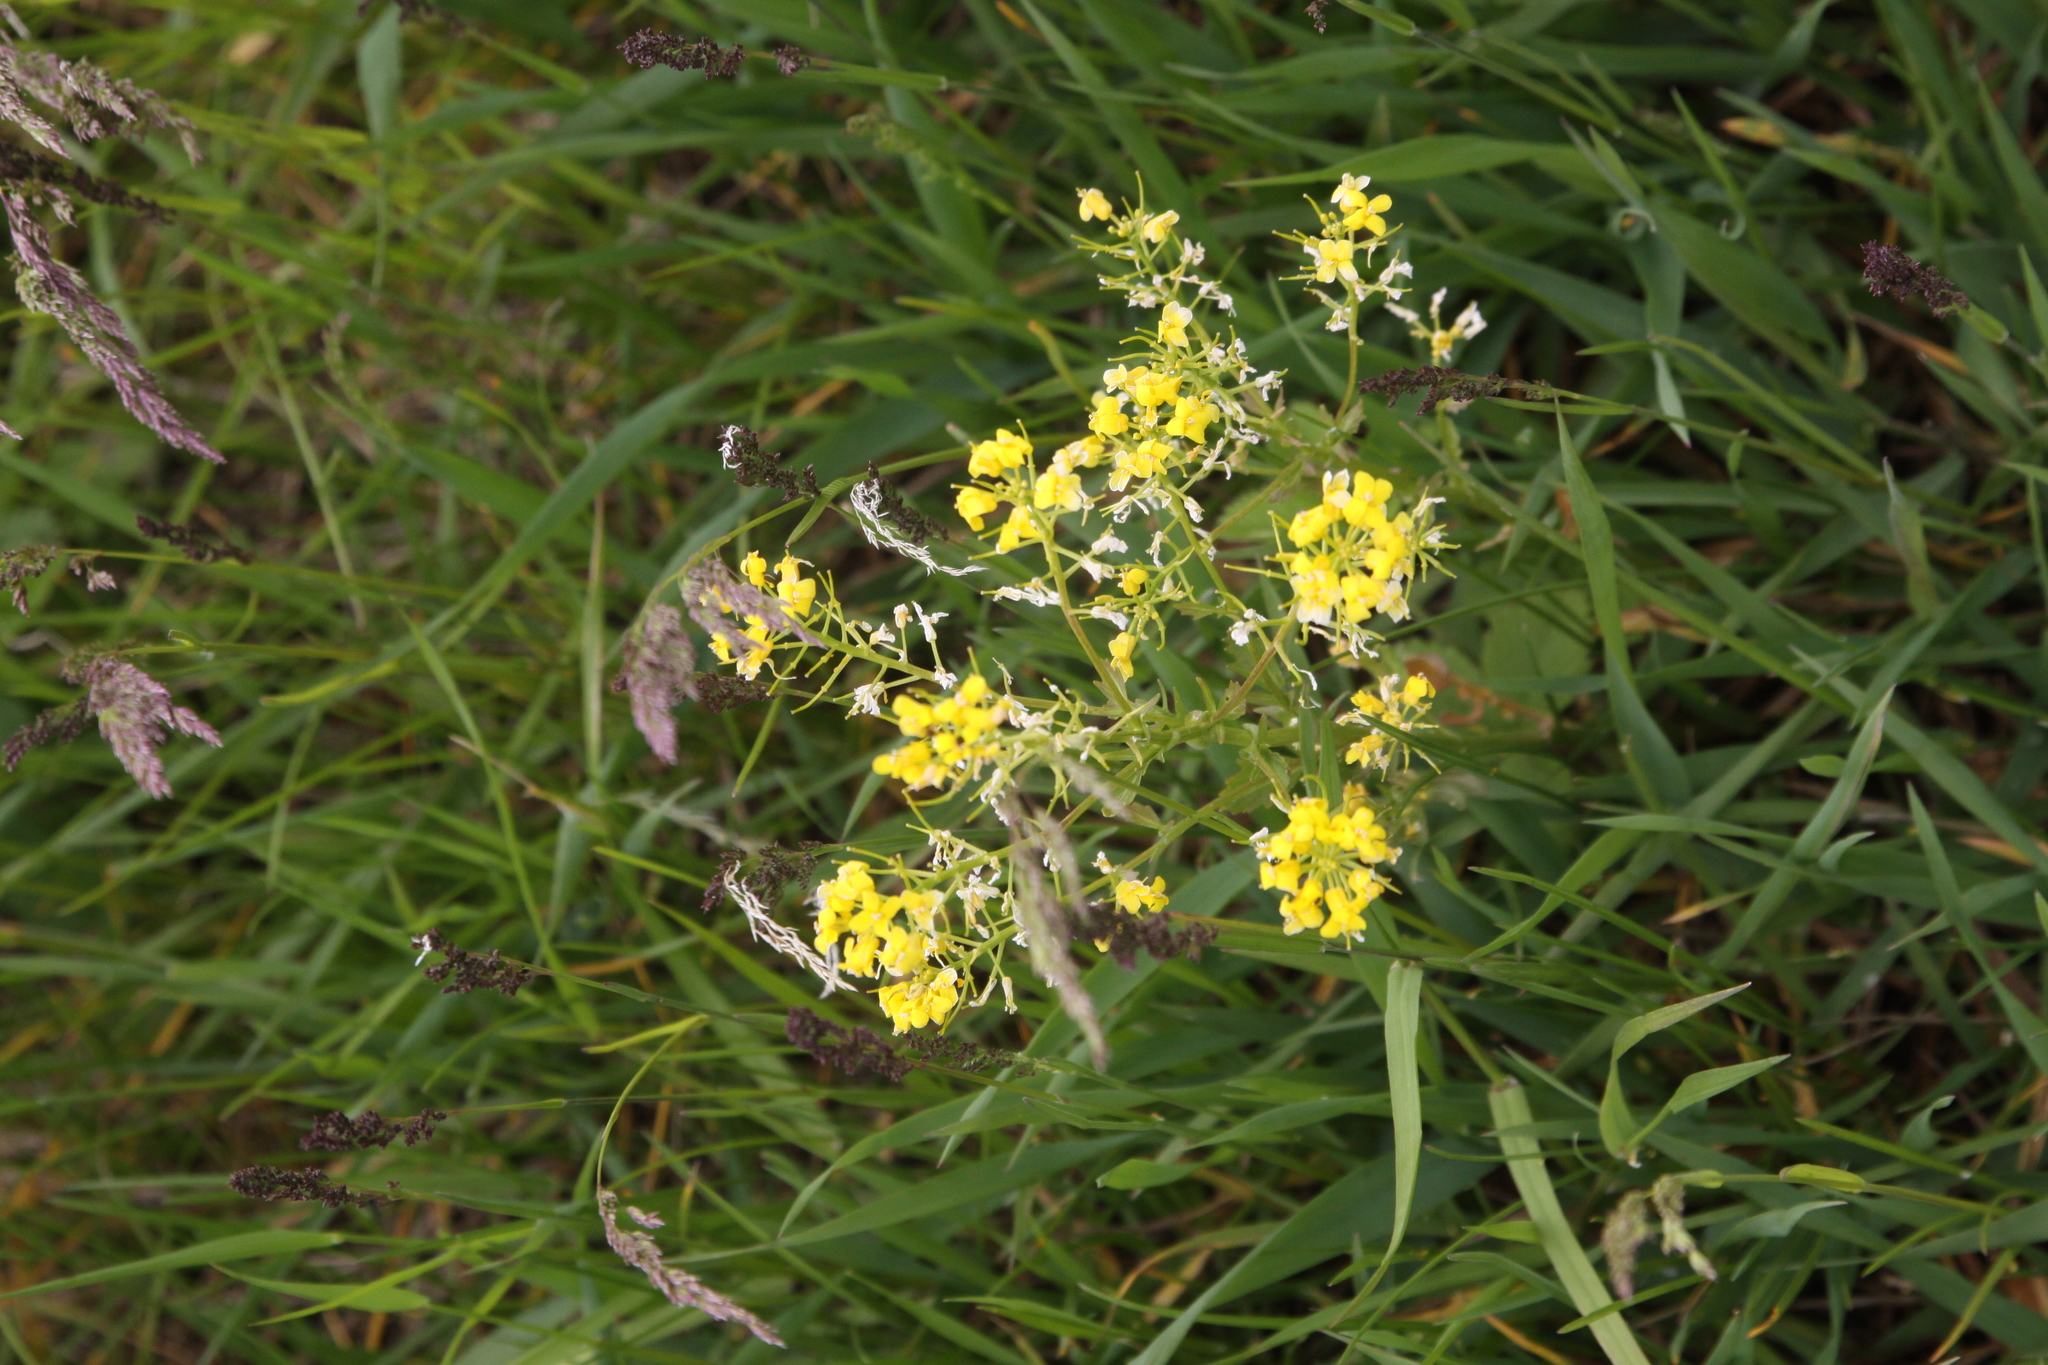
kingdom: Plantae
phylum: Tracheophyta
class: Magnoliopsida
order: Brassicales
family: Brassicaceae
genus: Barbarea
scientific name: Barbarea vulgaris
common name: Cressy-greens
